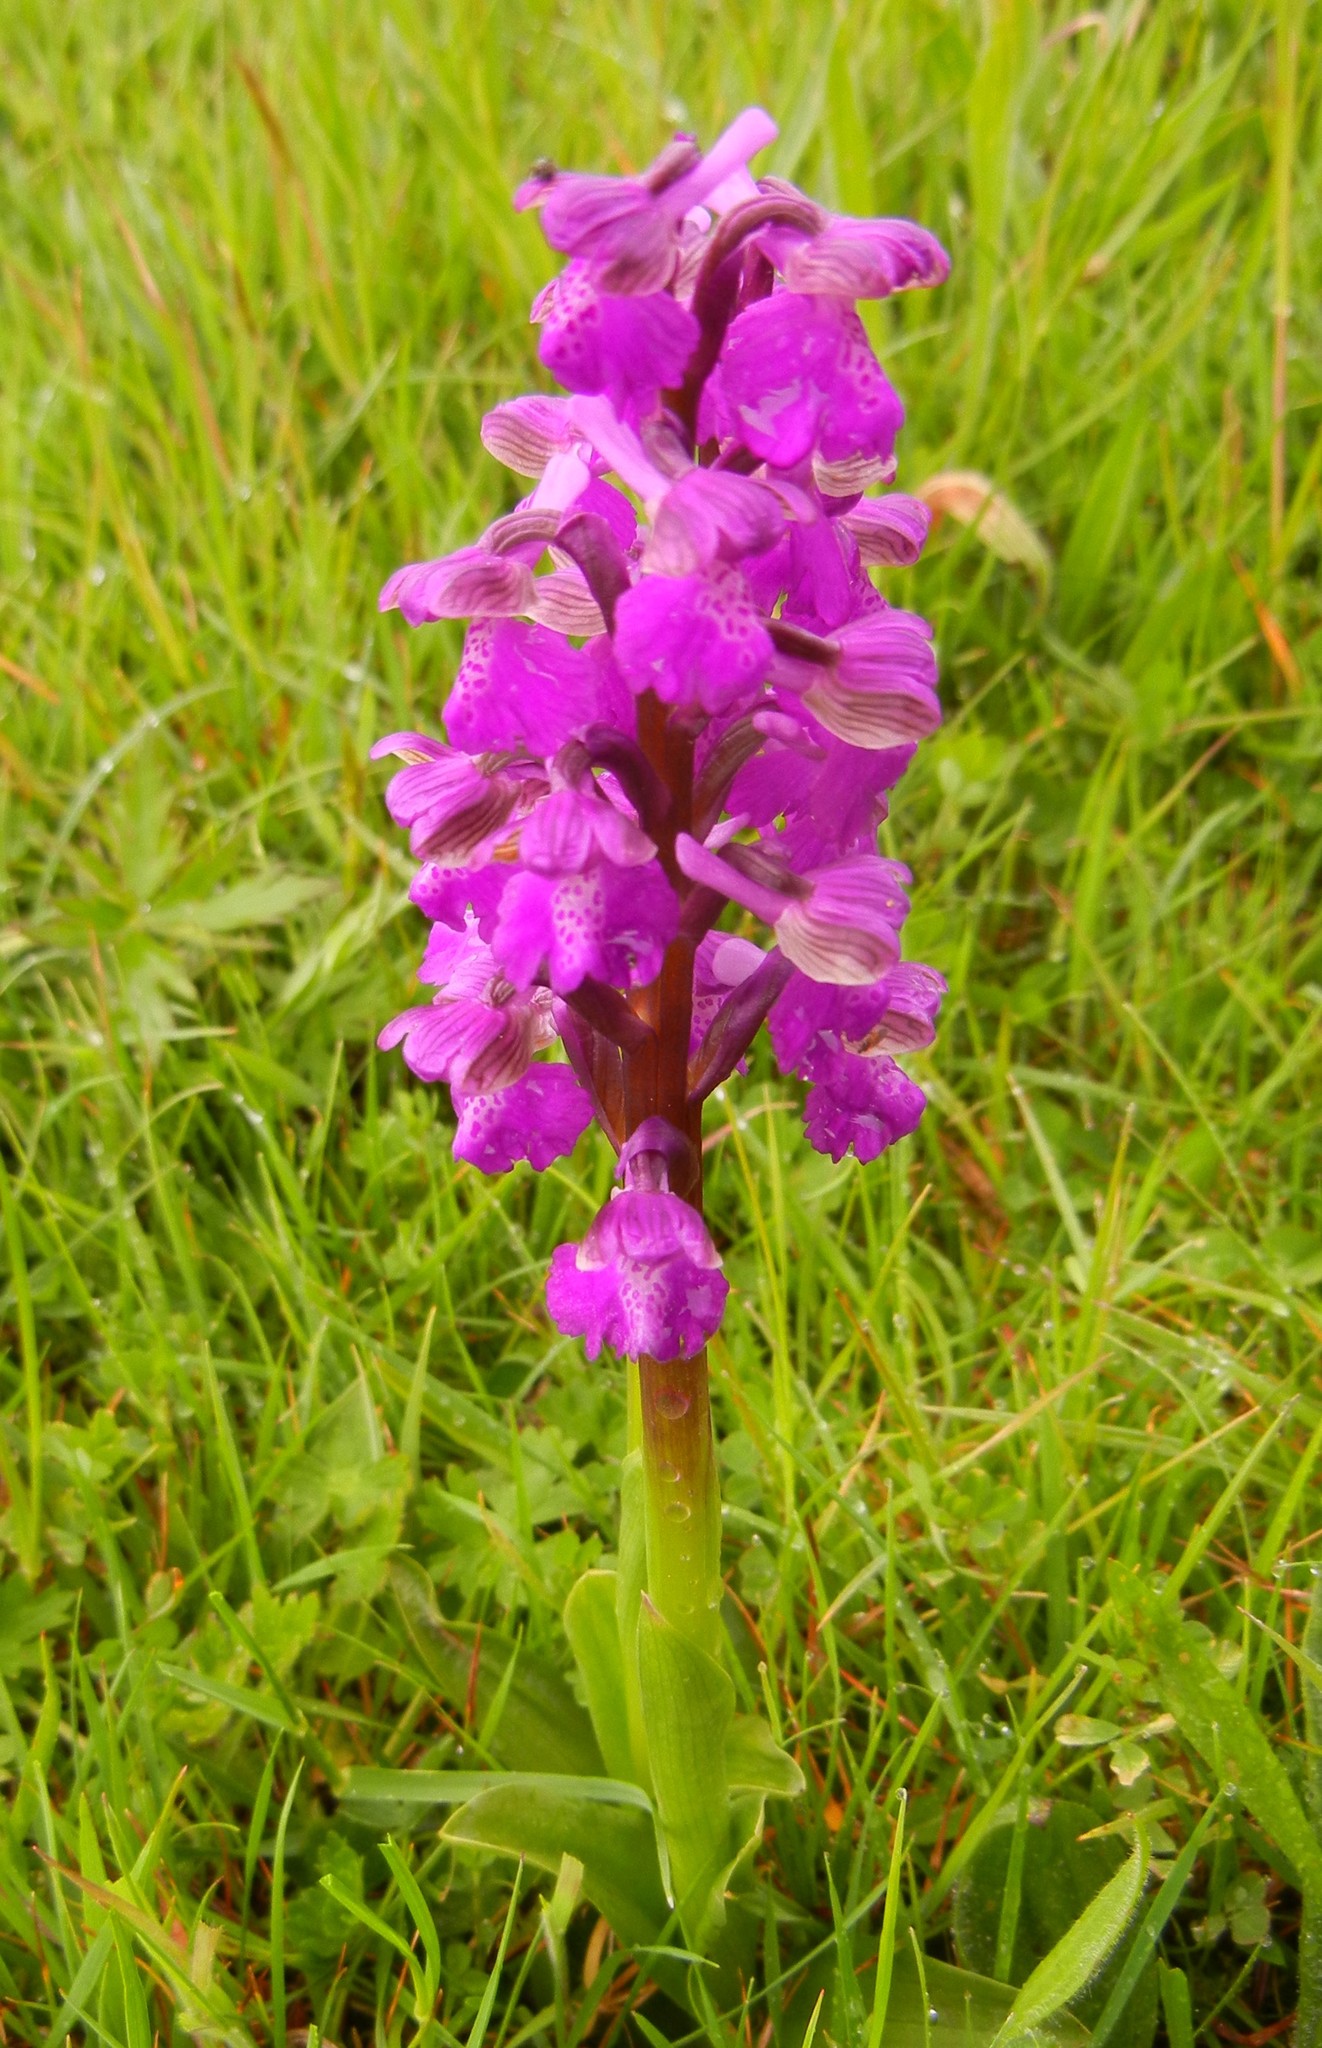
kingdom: Plantae
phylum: Tracheophyta
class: Liliopsida
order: Asparagales
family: Orchidaceae
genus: Anacamptis
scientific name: Anacamptis morio
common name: Green-winged orchid
